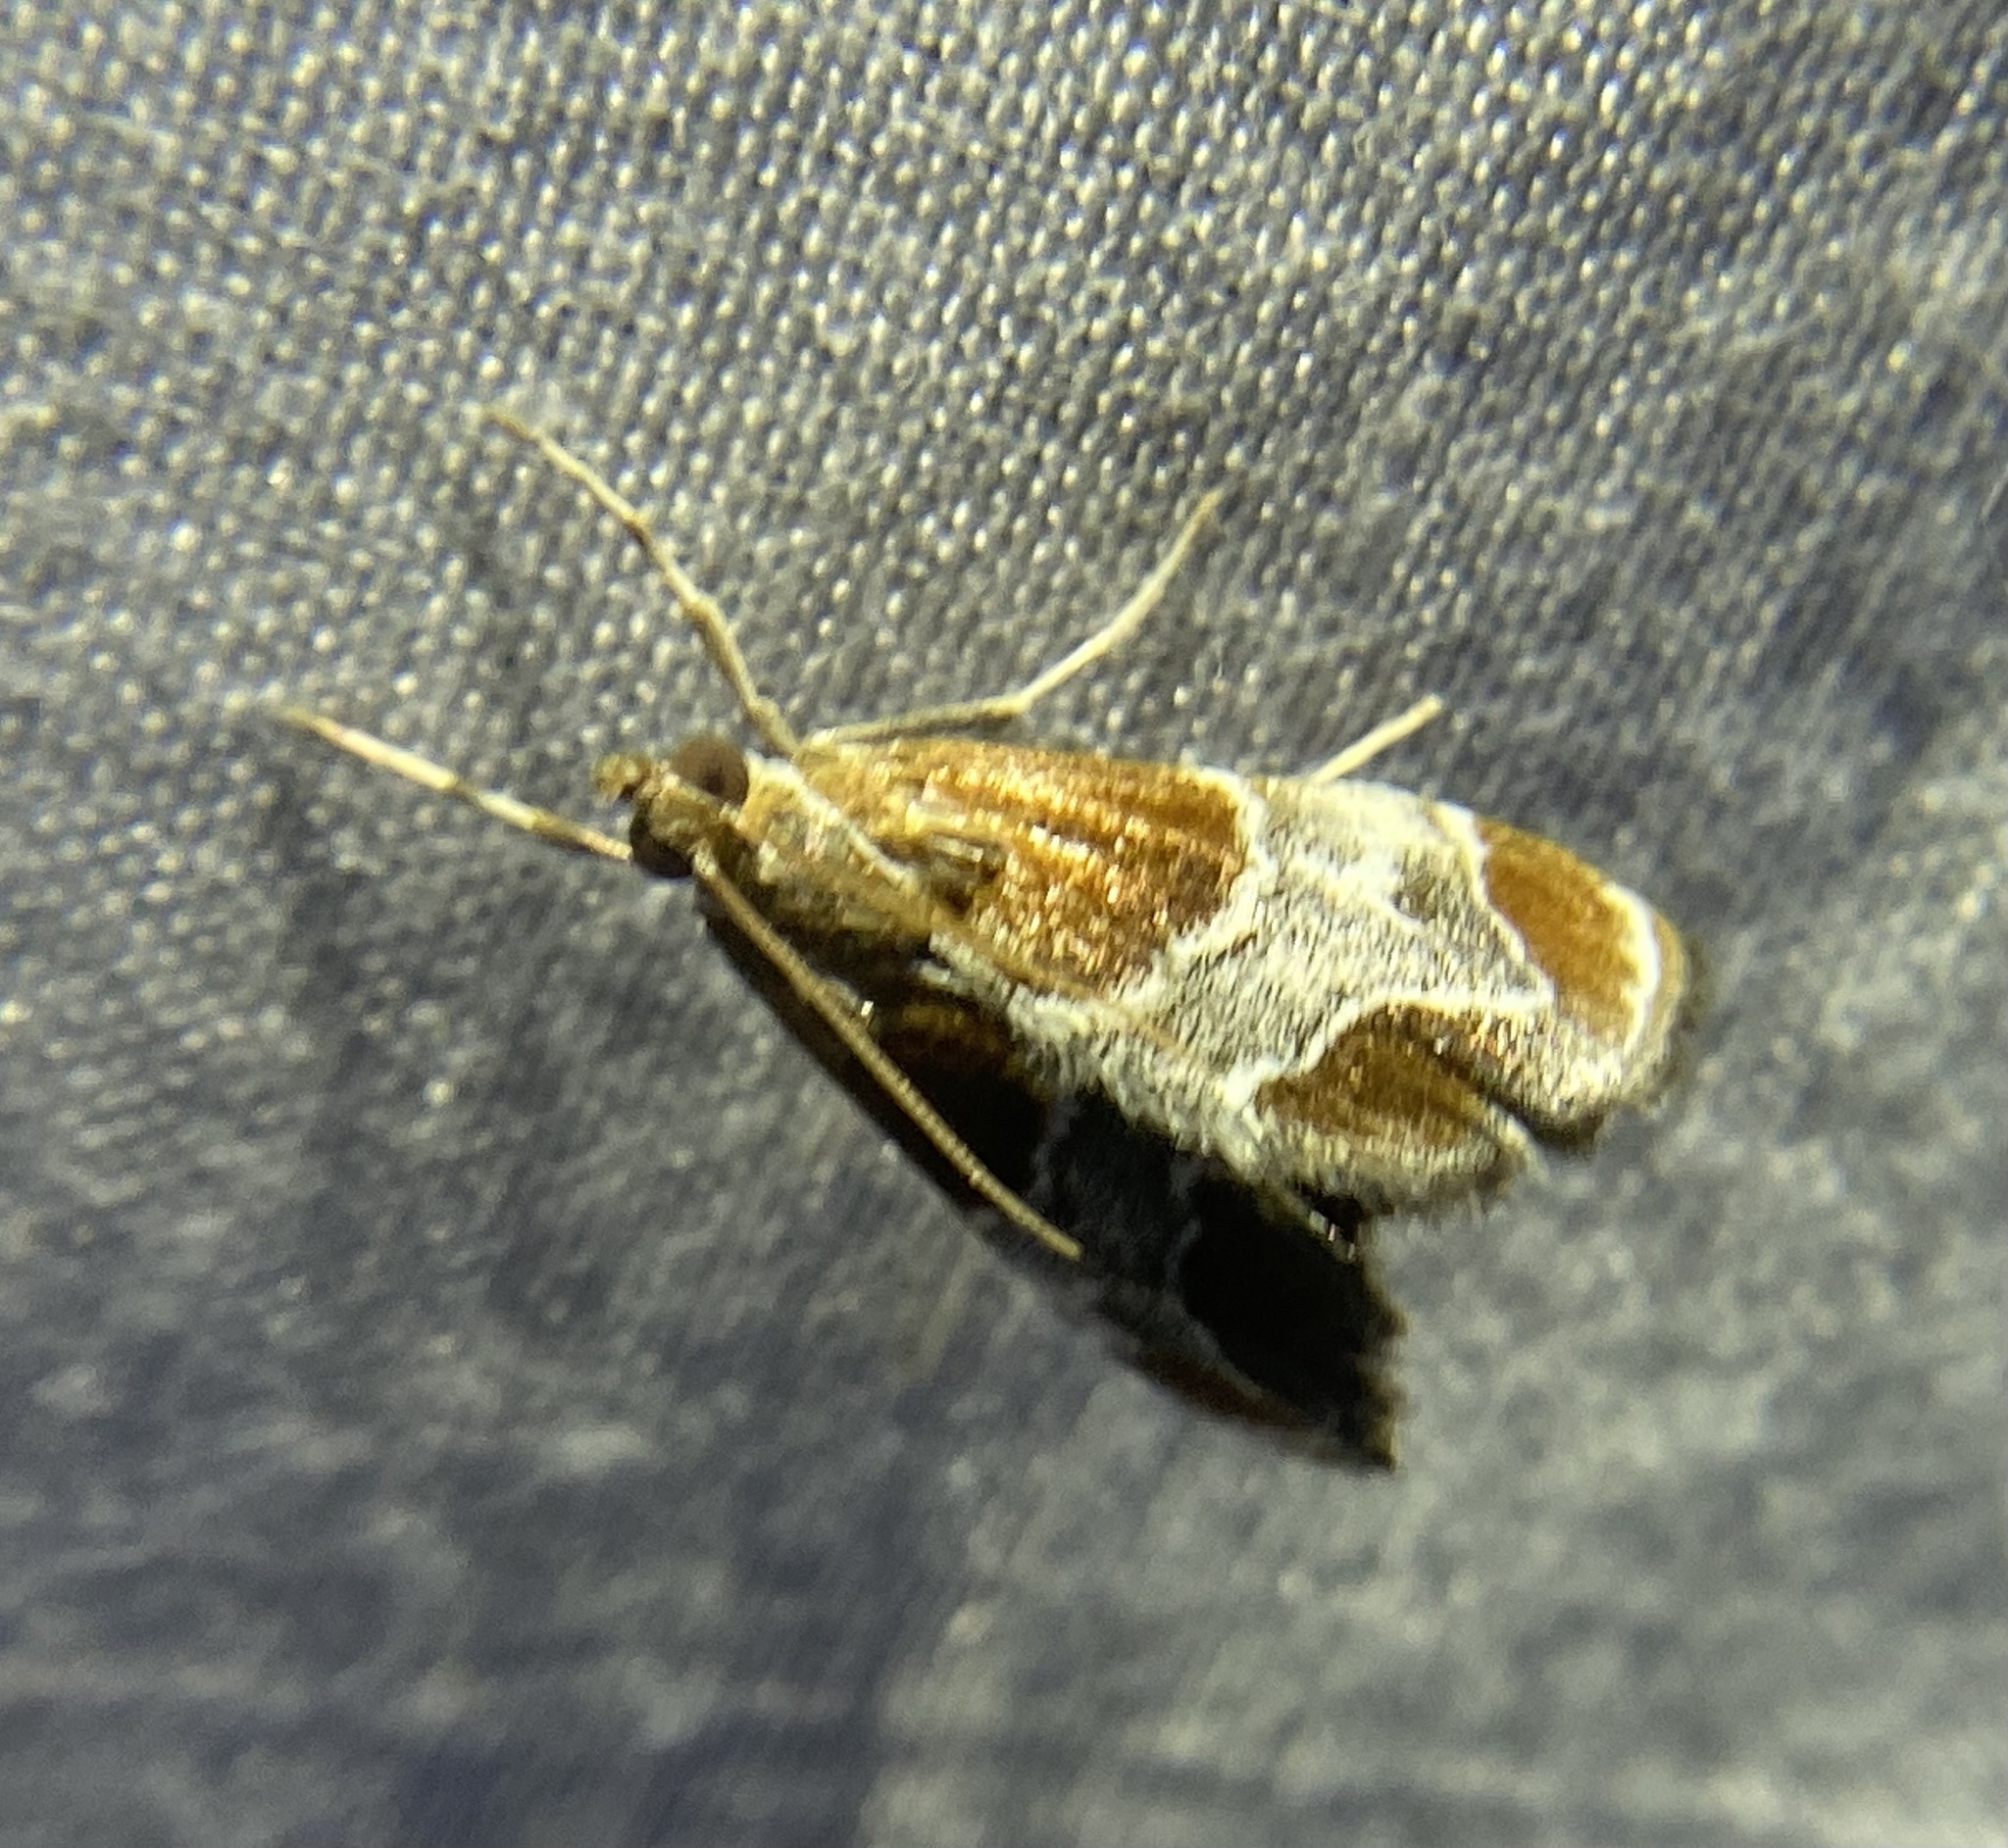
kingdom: Animalia
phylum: Arthropoda
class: Insecta
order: Lepidoptera
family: Crambidae
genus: Chalcoela
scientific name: Chalcoela pegasalis
